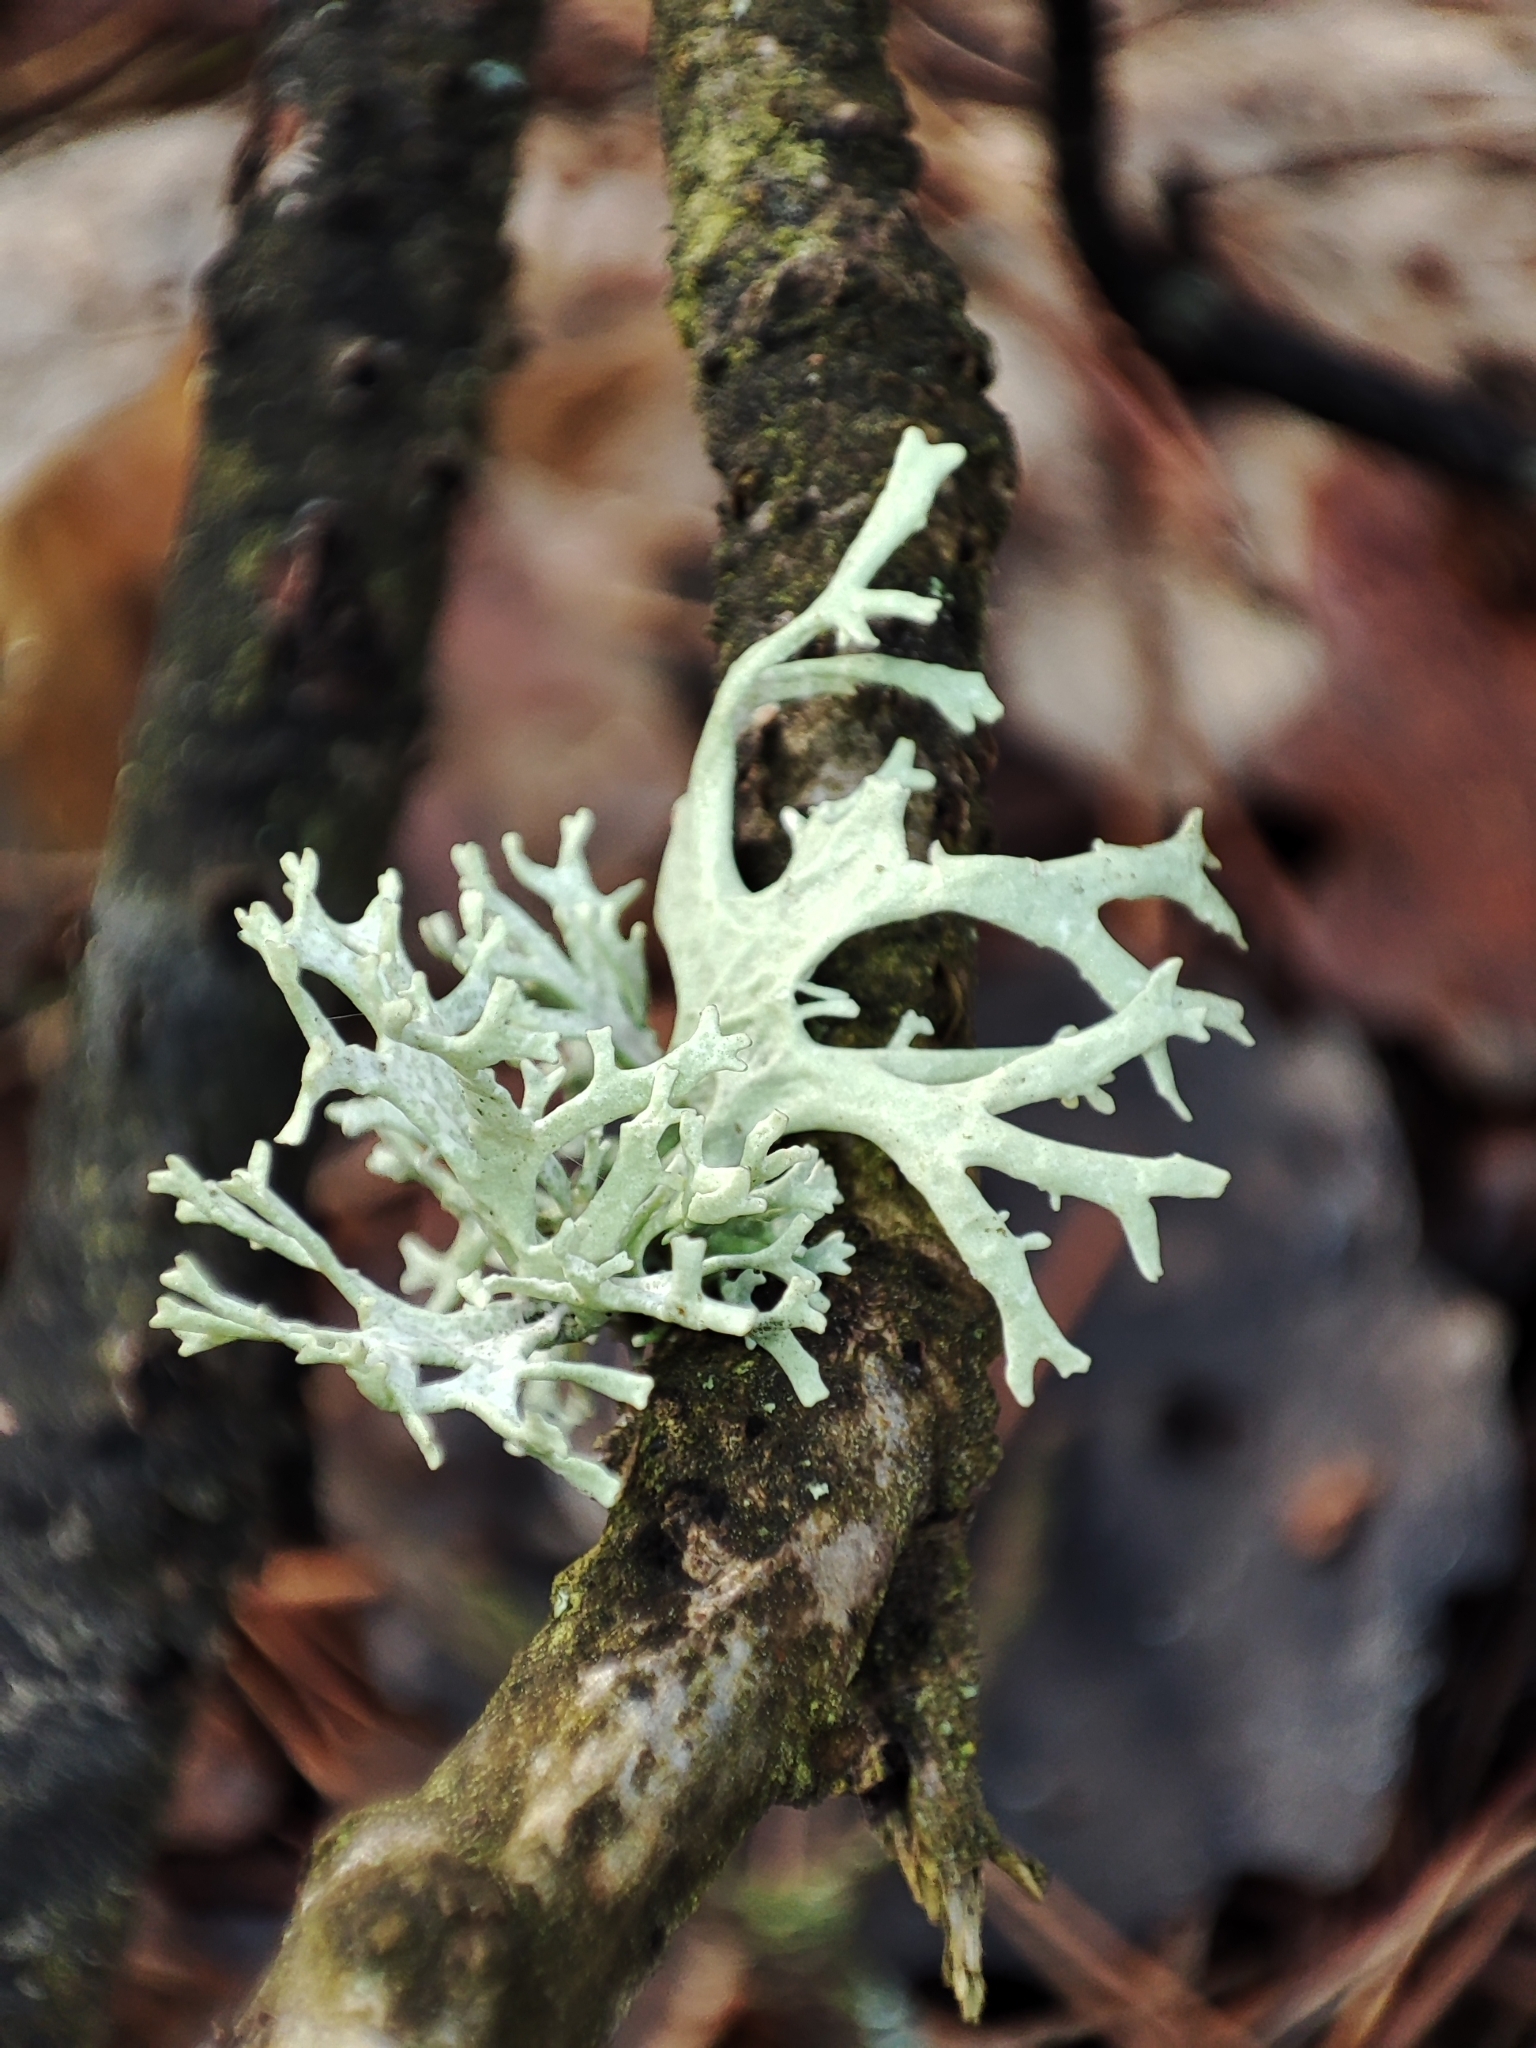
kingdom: Fungi
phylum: Ascomycota
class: Lecanoromycetes
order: Lecanorales
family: Parmeliaceae
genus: Evernia
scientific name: Evernia prunastri
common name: Oak moss
